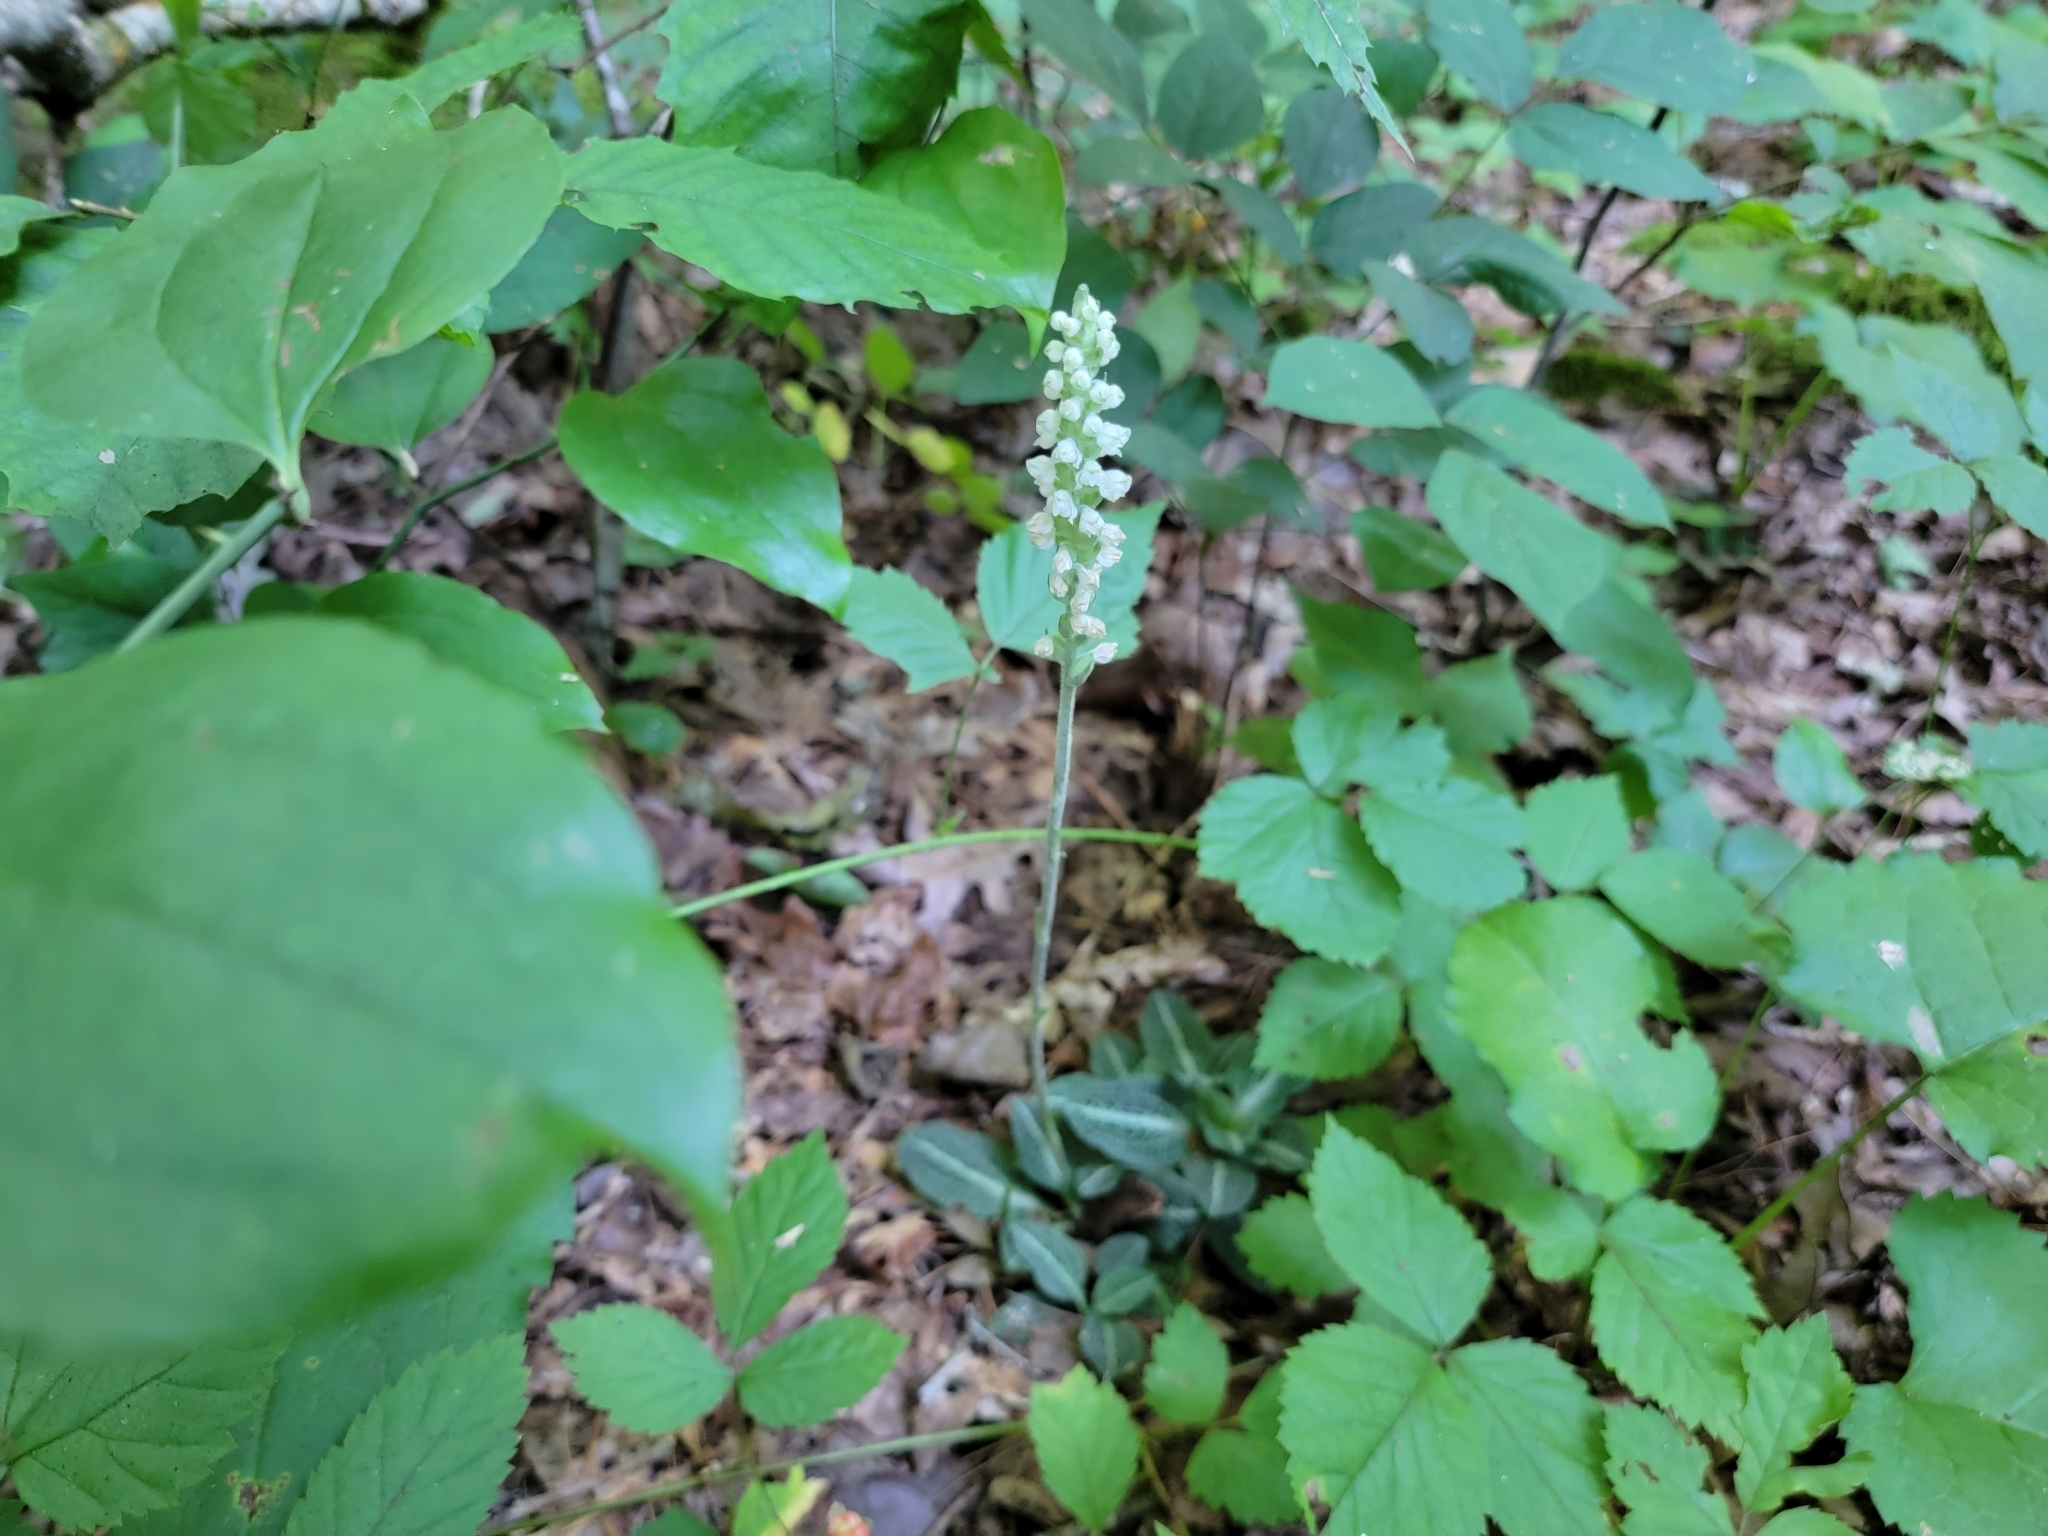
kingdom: Plantae
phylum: Tracheophyta
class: Liliopsida
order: Asparagales
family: Orchidaceae
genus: Goodyera
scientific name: Goodyera pubescens
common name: Downy rattlesnake-plantain
